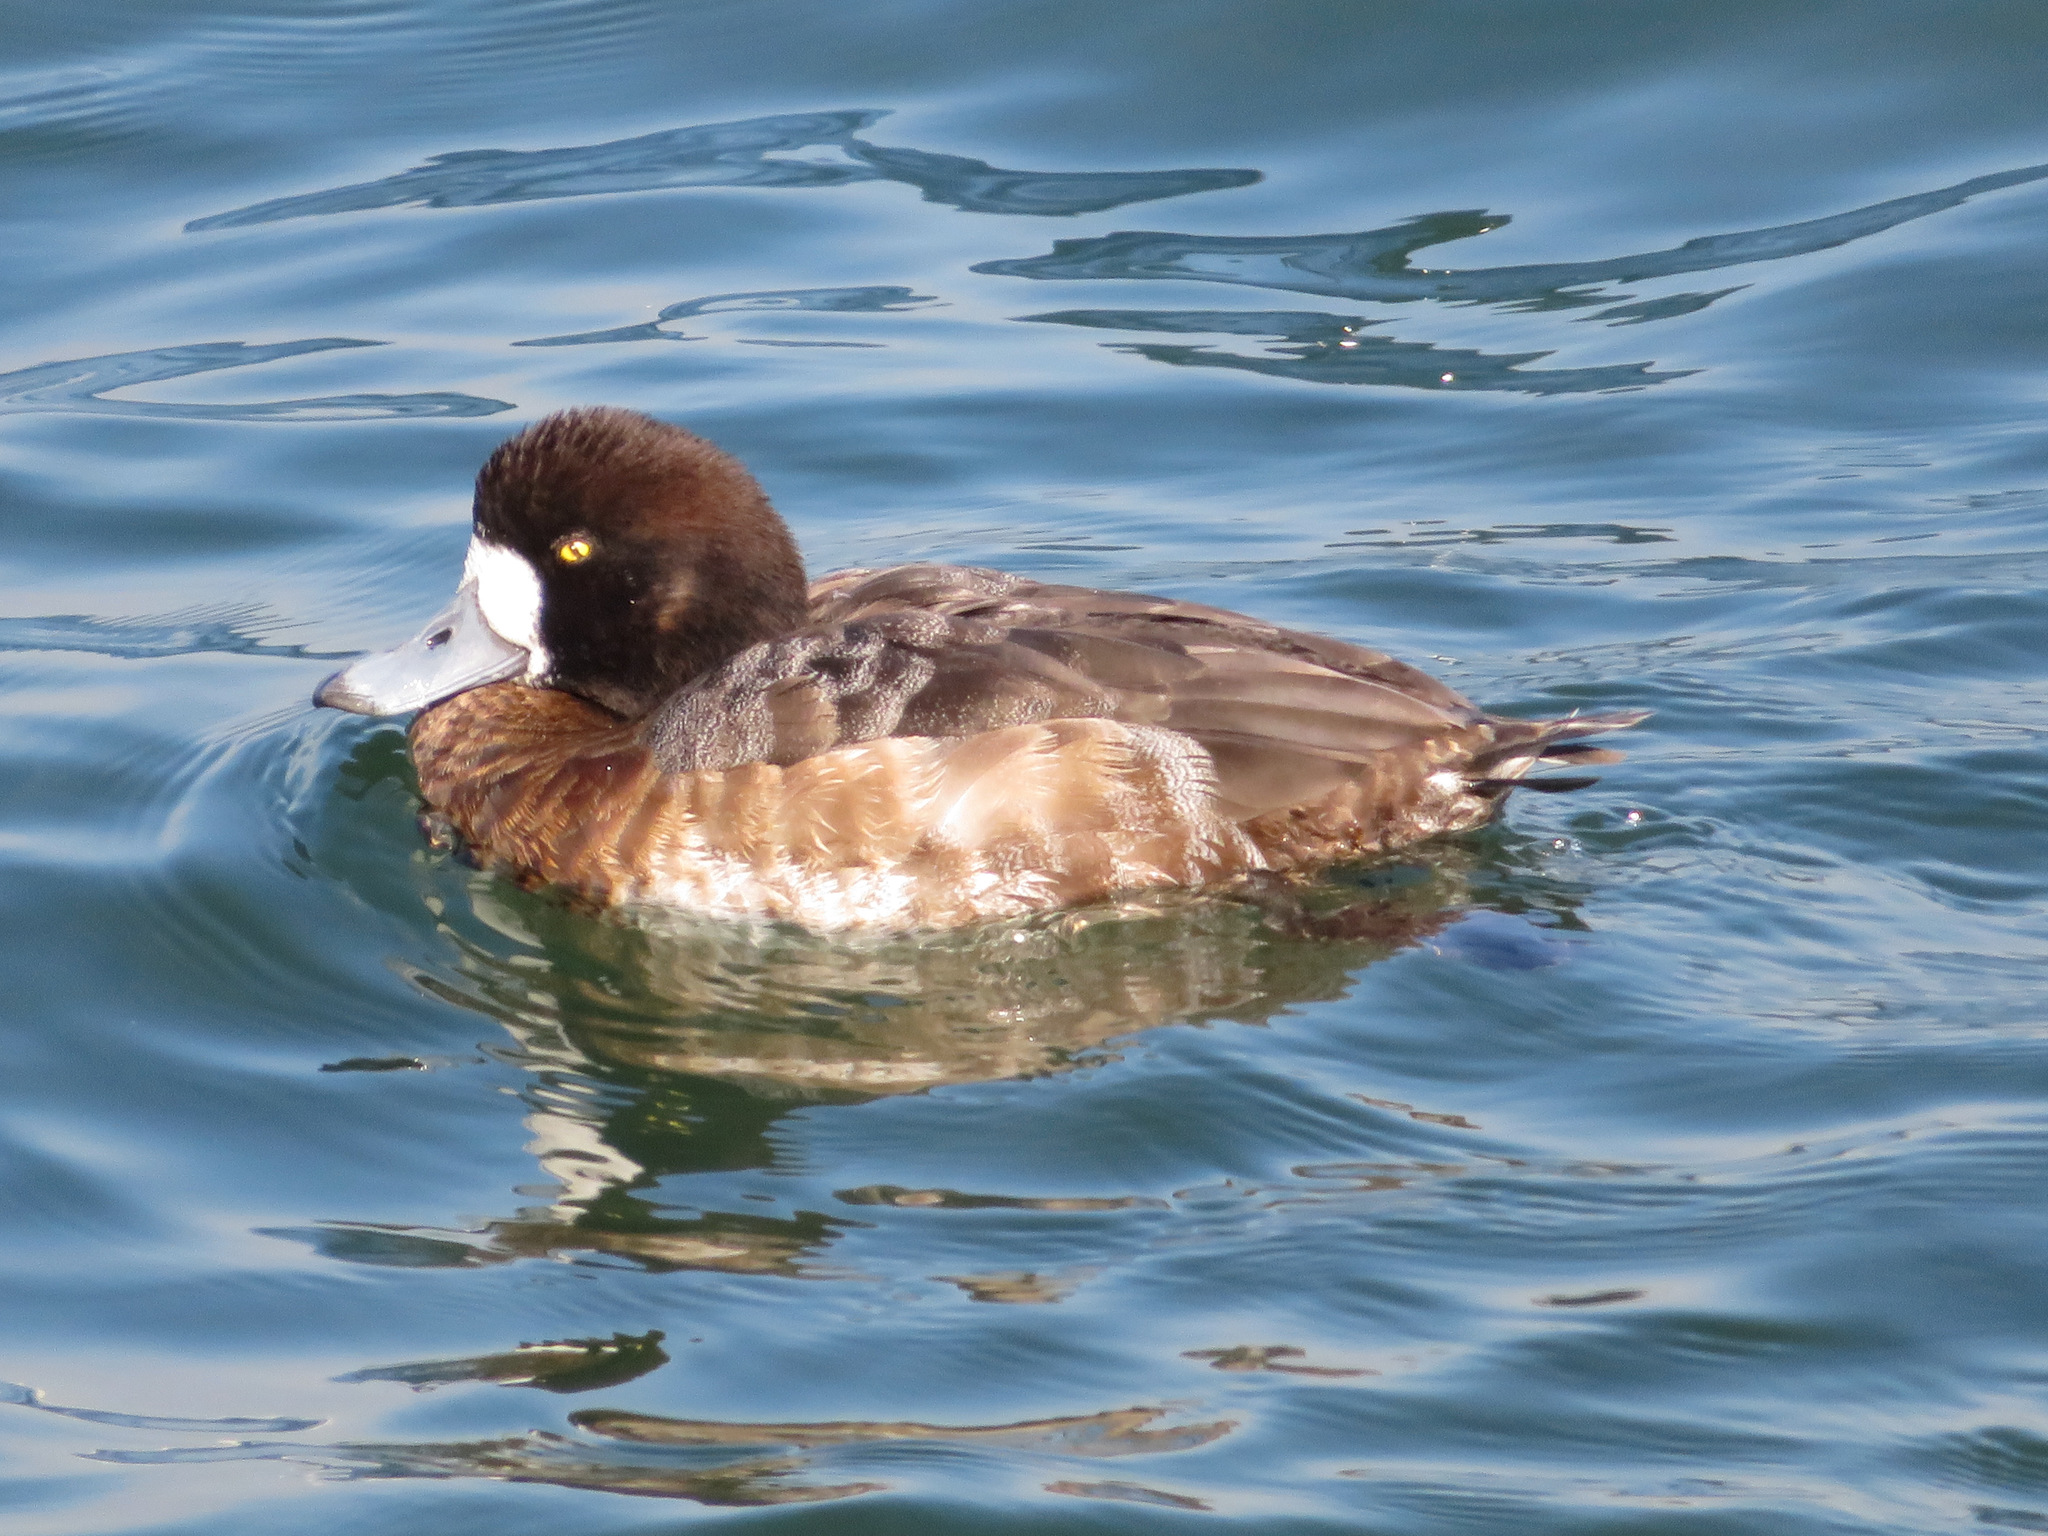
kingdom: Animalia
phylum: Chordata
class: Aves
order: Anseriformes
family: Anatidae
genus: Aythya
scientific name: Aythya marila
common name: Greater scaup
